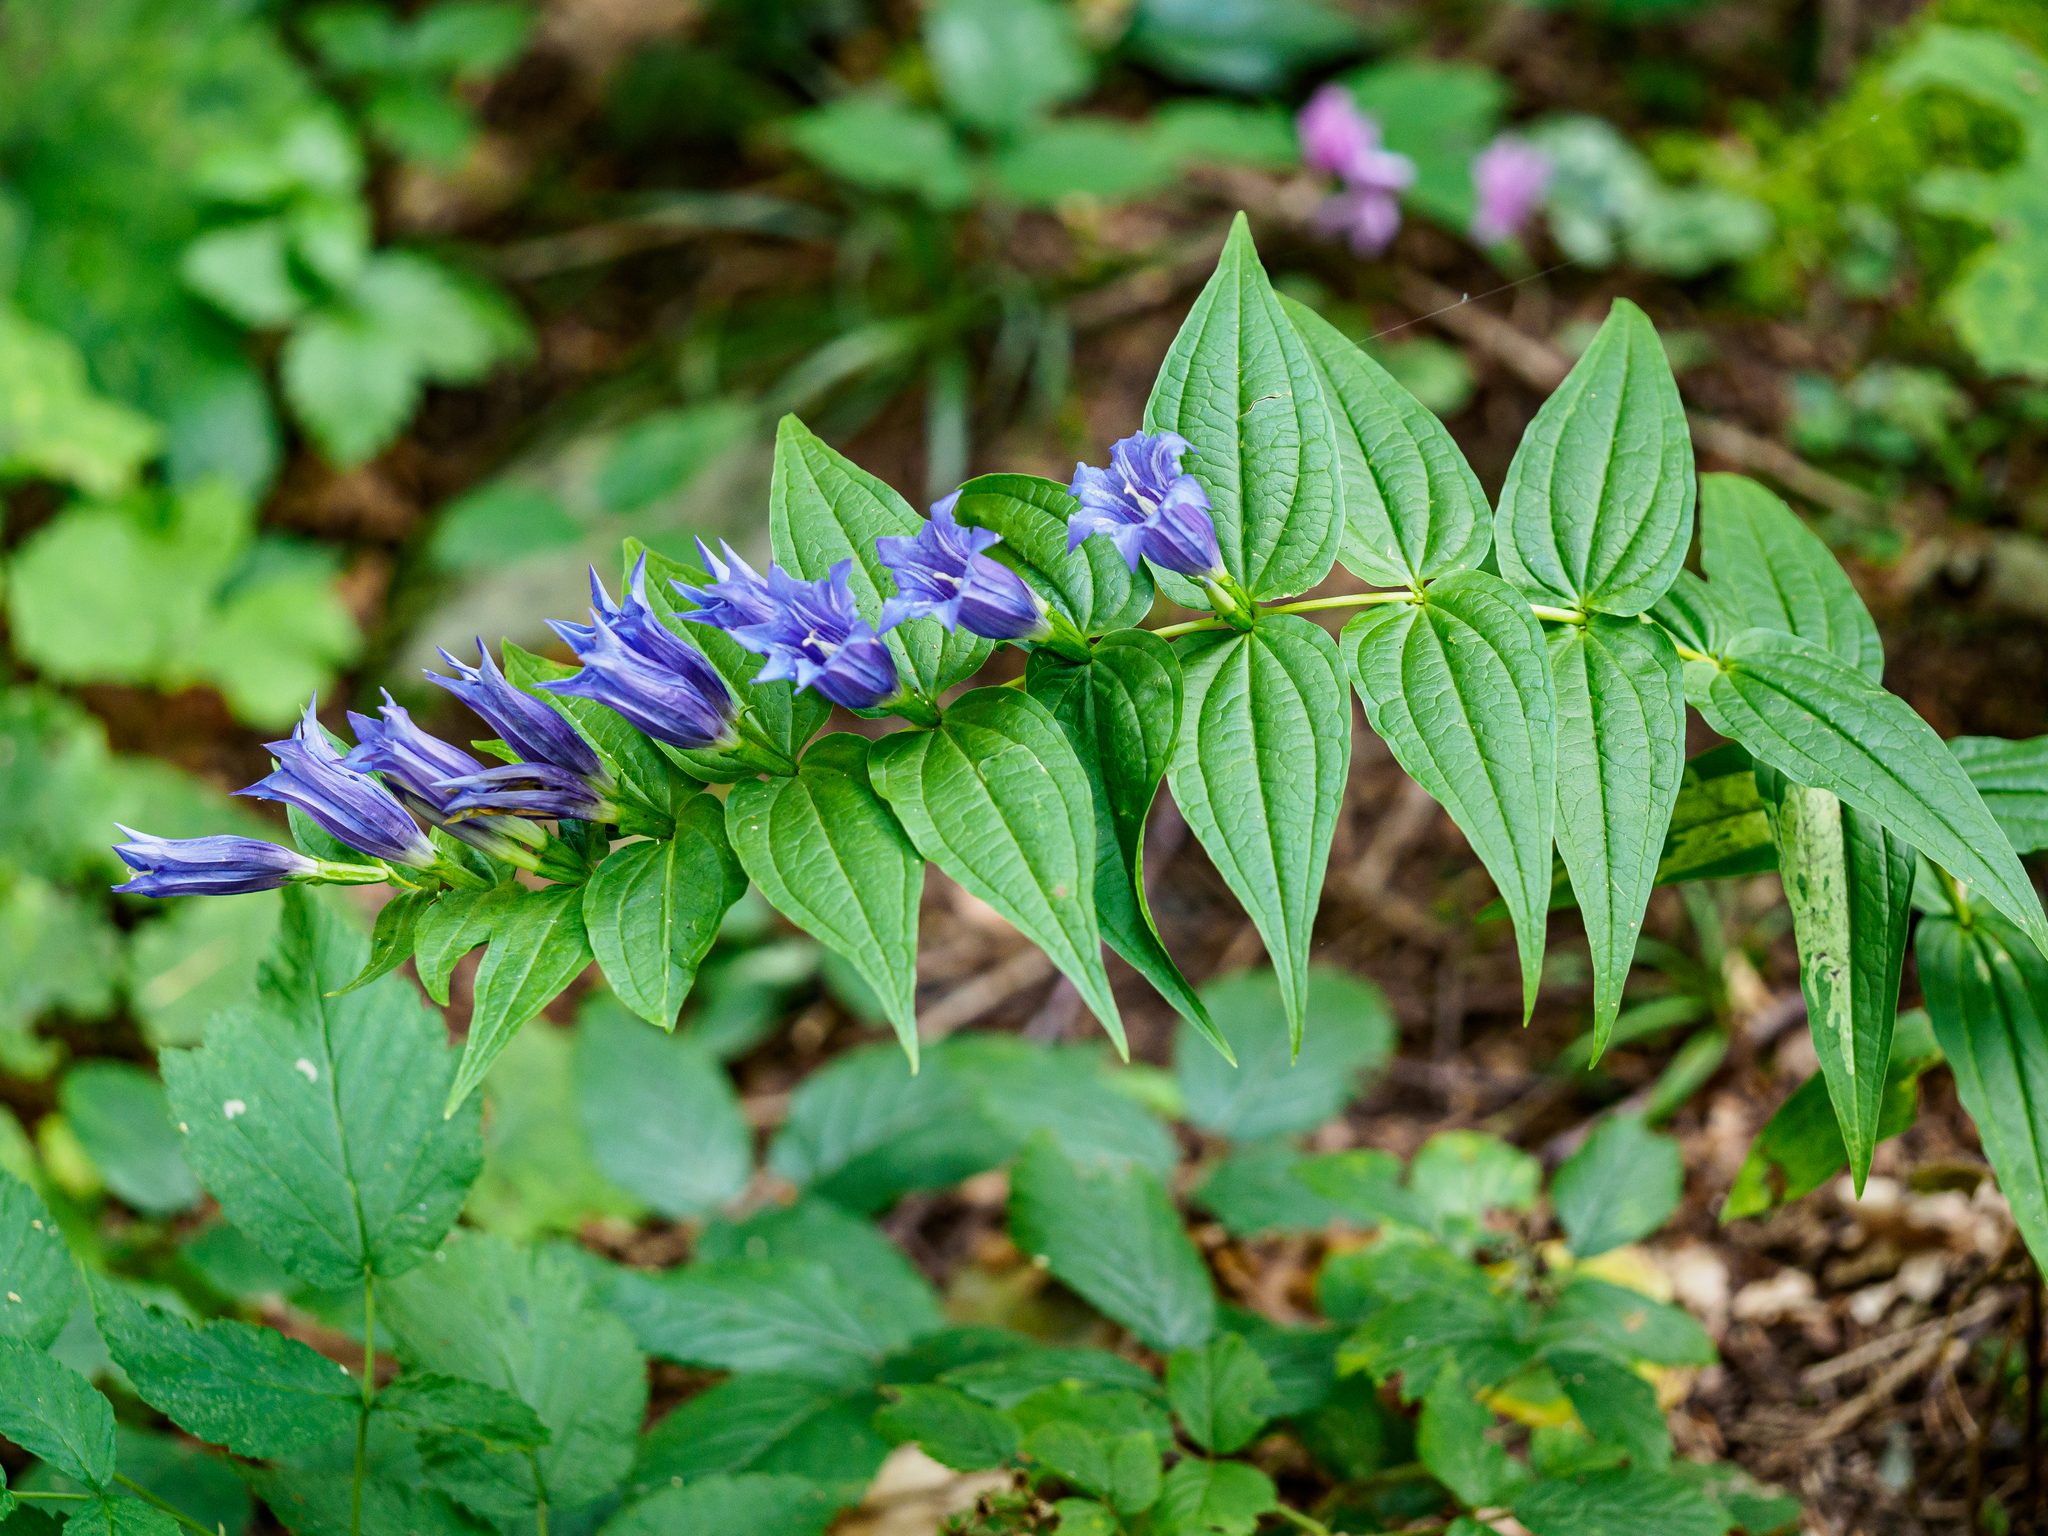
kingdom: Plantae
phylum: Tracheophyta
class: Magnoliopsida
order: Gentianales
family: Gentianaceae
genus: Gentiana
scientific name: Gentiana asclepiadea
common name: Willow gentian
